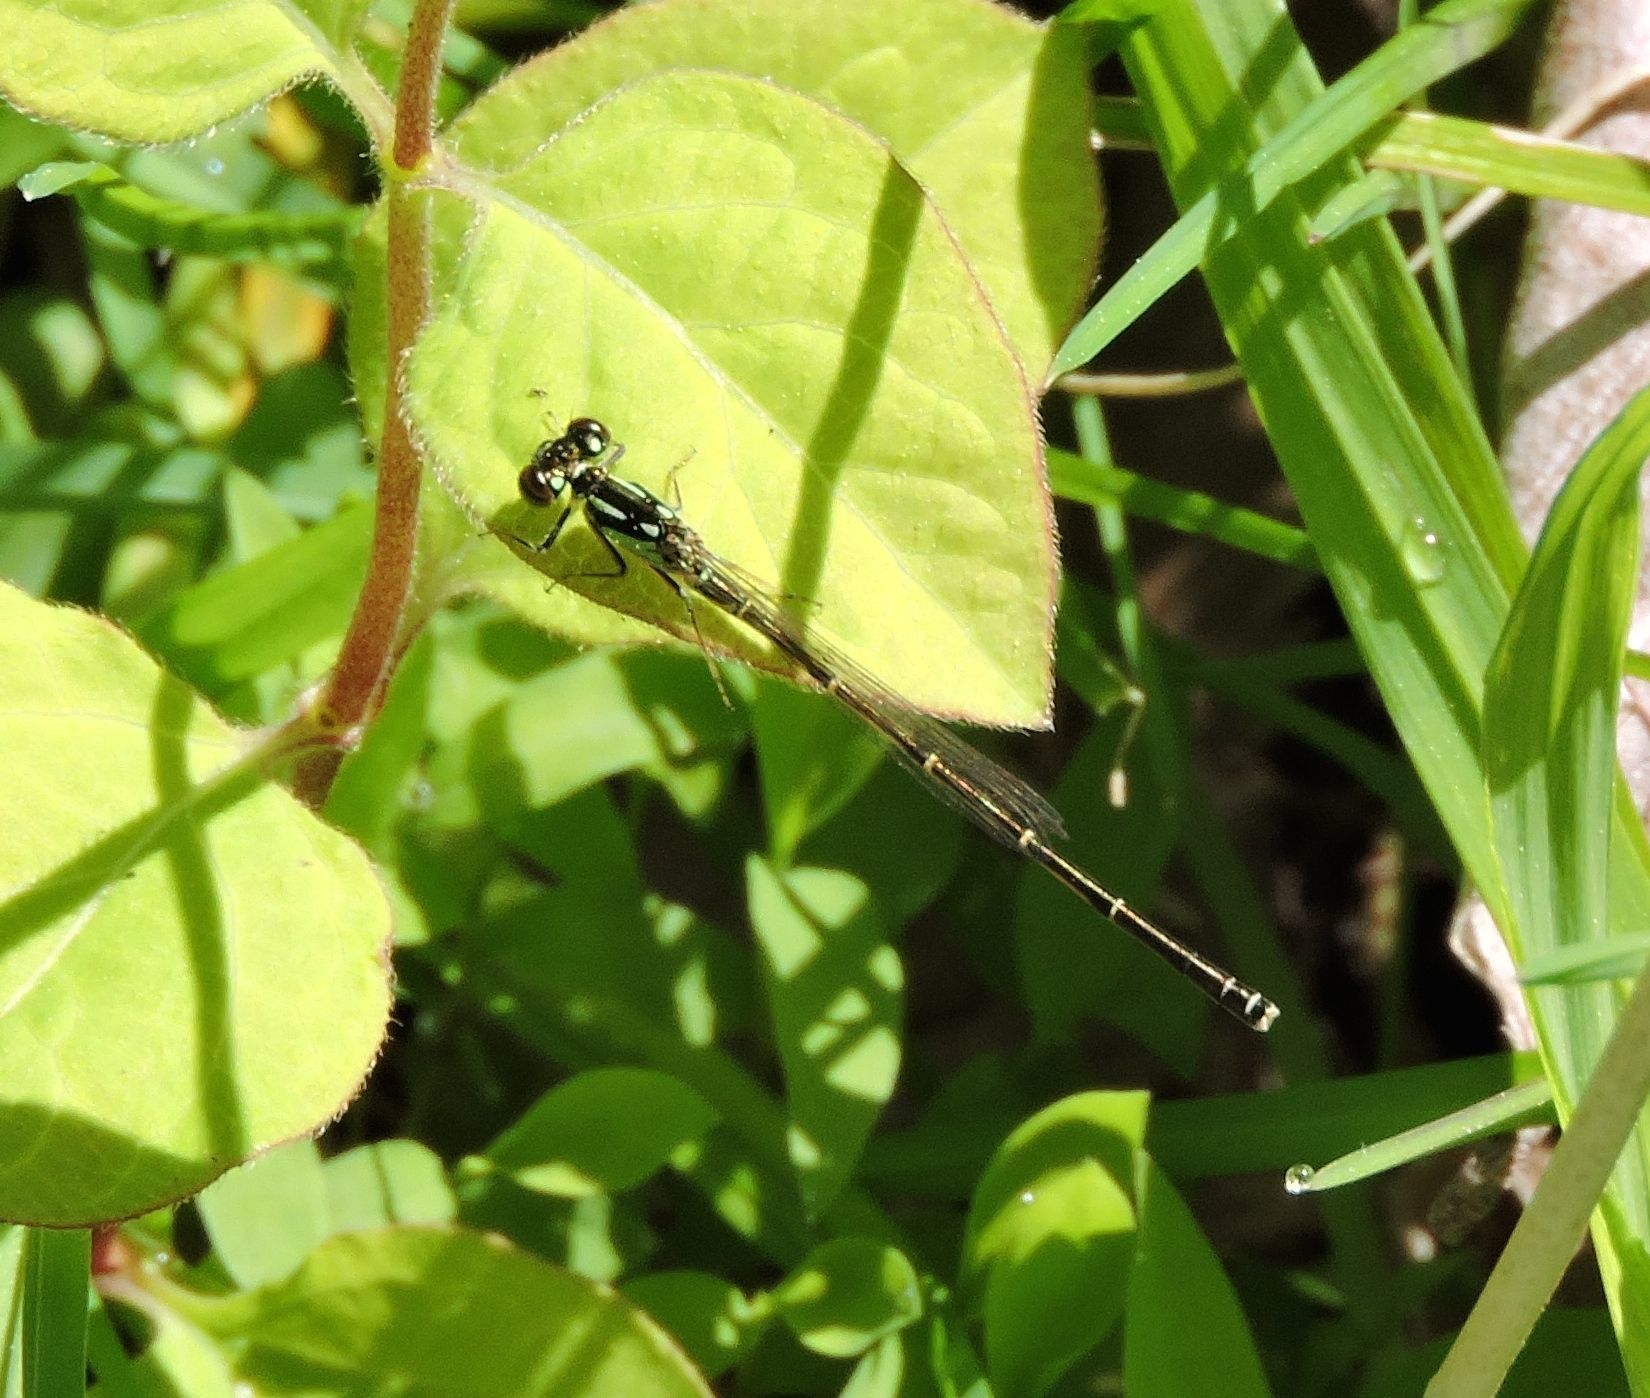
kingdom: Animalia
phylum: Arthropoda
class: Insecta
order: Odonata
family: Coenagrionidae
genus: Ischnura
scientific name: Ischnura posita
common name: Fragile forktail
